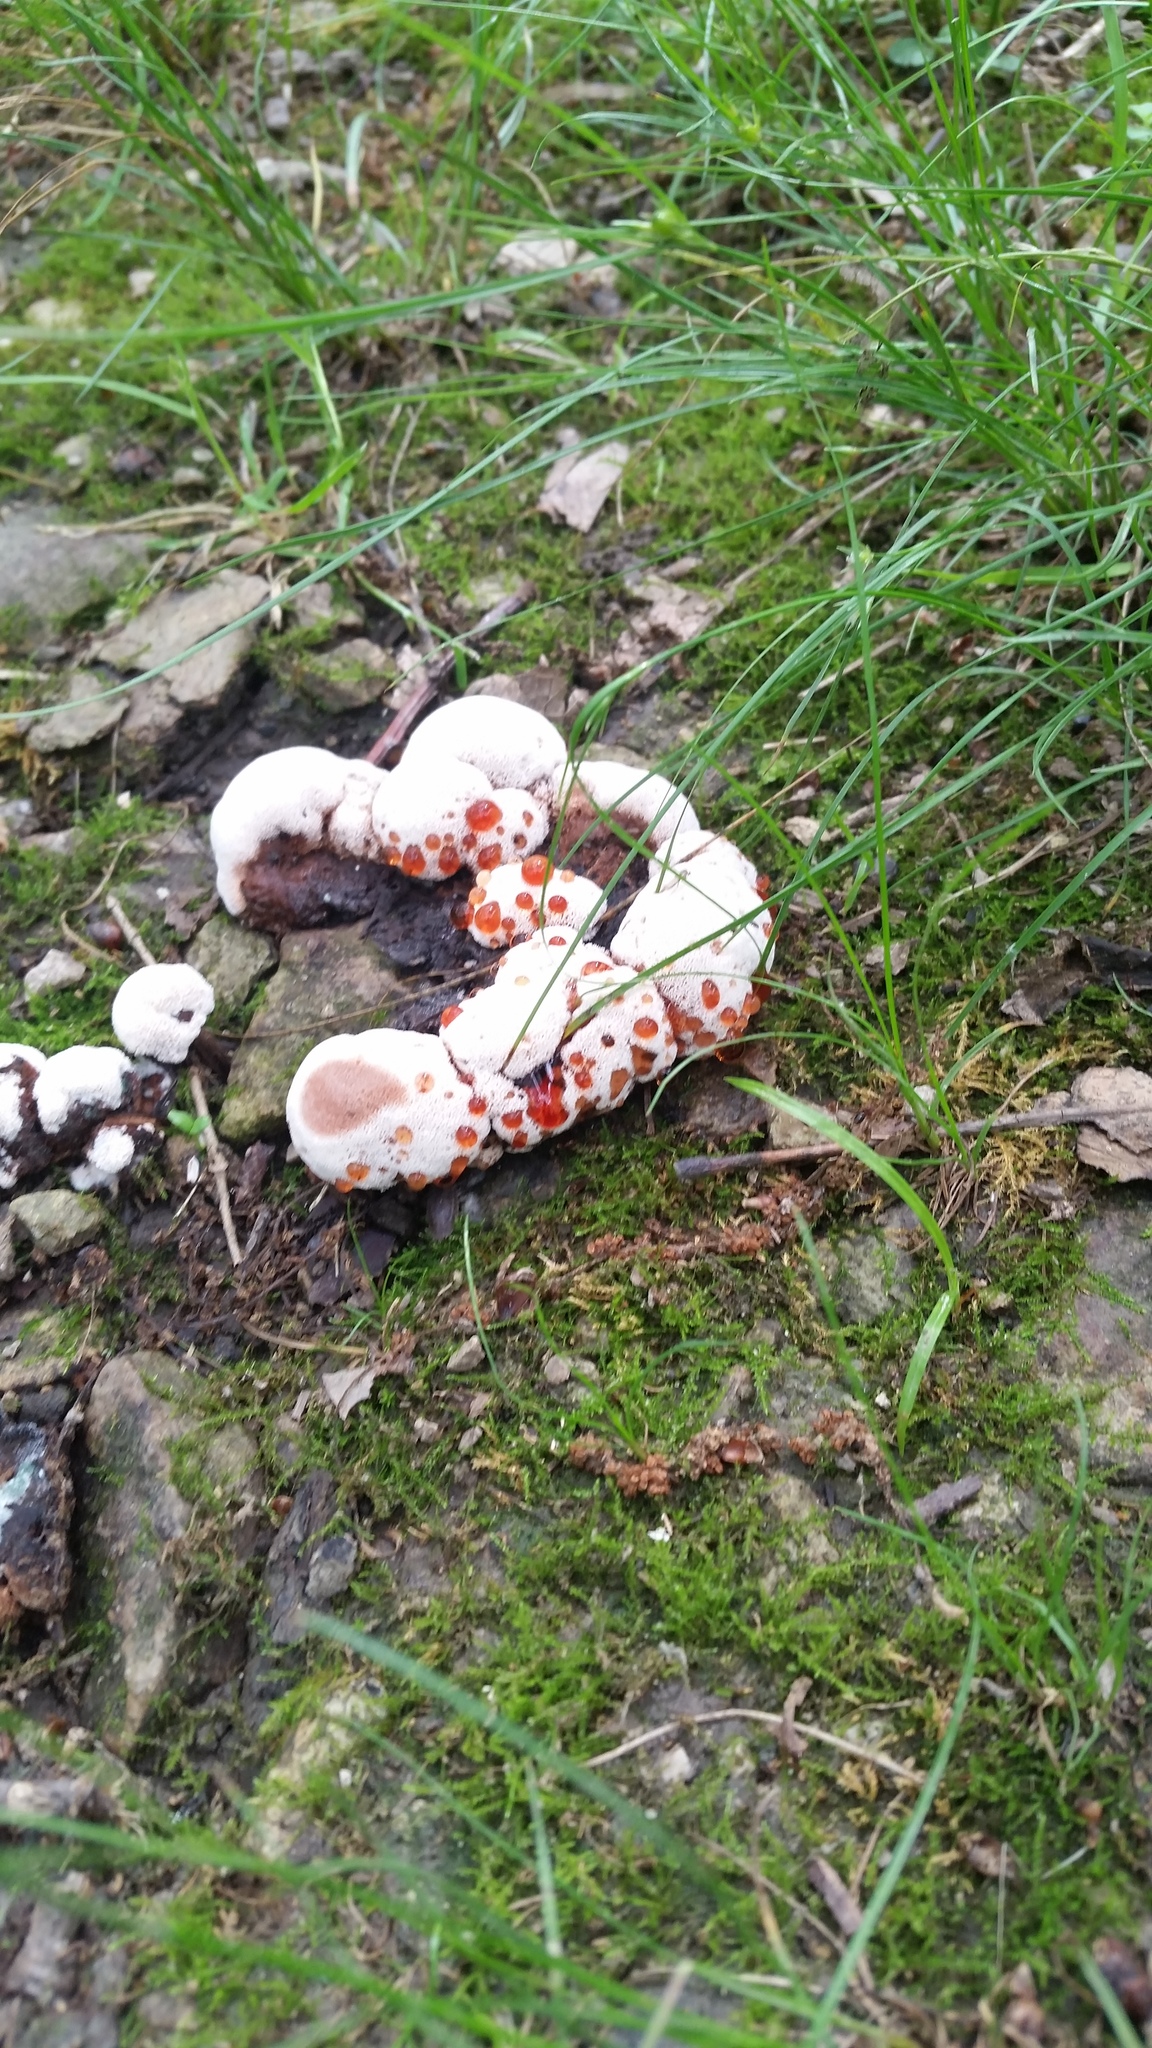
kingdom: Fungi
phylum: Basidiomycota
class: Agaricomycetes
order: Polyporales
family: Podoscyphaceae
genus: Abortiporus
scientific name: Abortiporus biennis
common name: Blushing rosette
